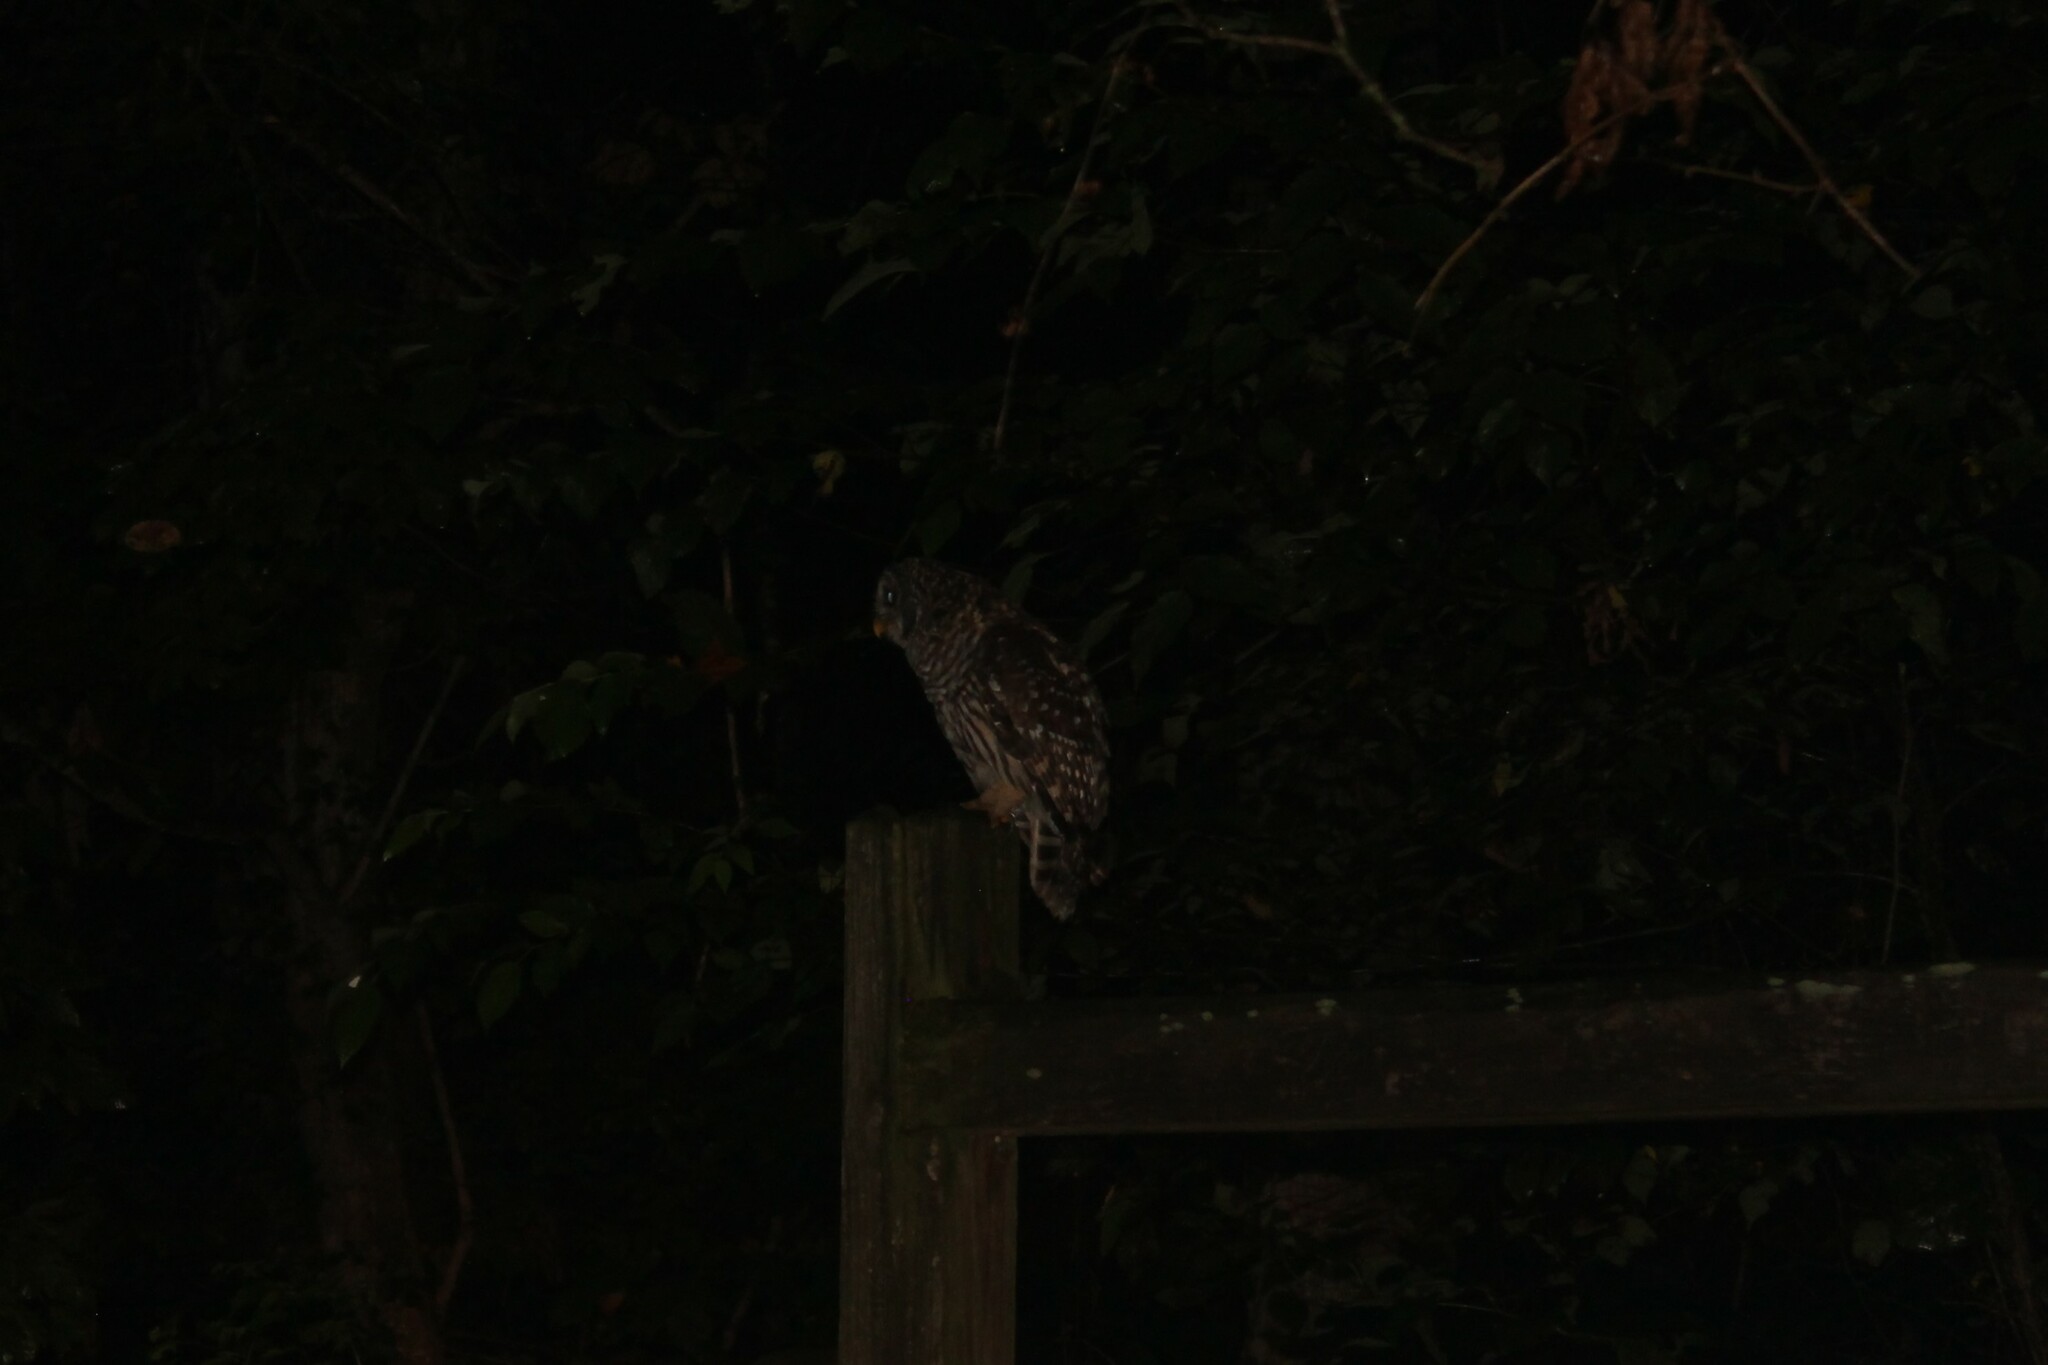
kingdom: Animalia
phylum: Chordata
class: Aves
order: Strigiformes
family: Strigidae
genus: Strix
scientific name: Strix varia
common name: Barred owl
